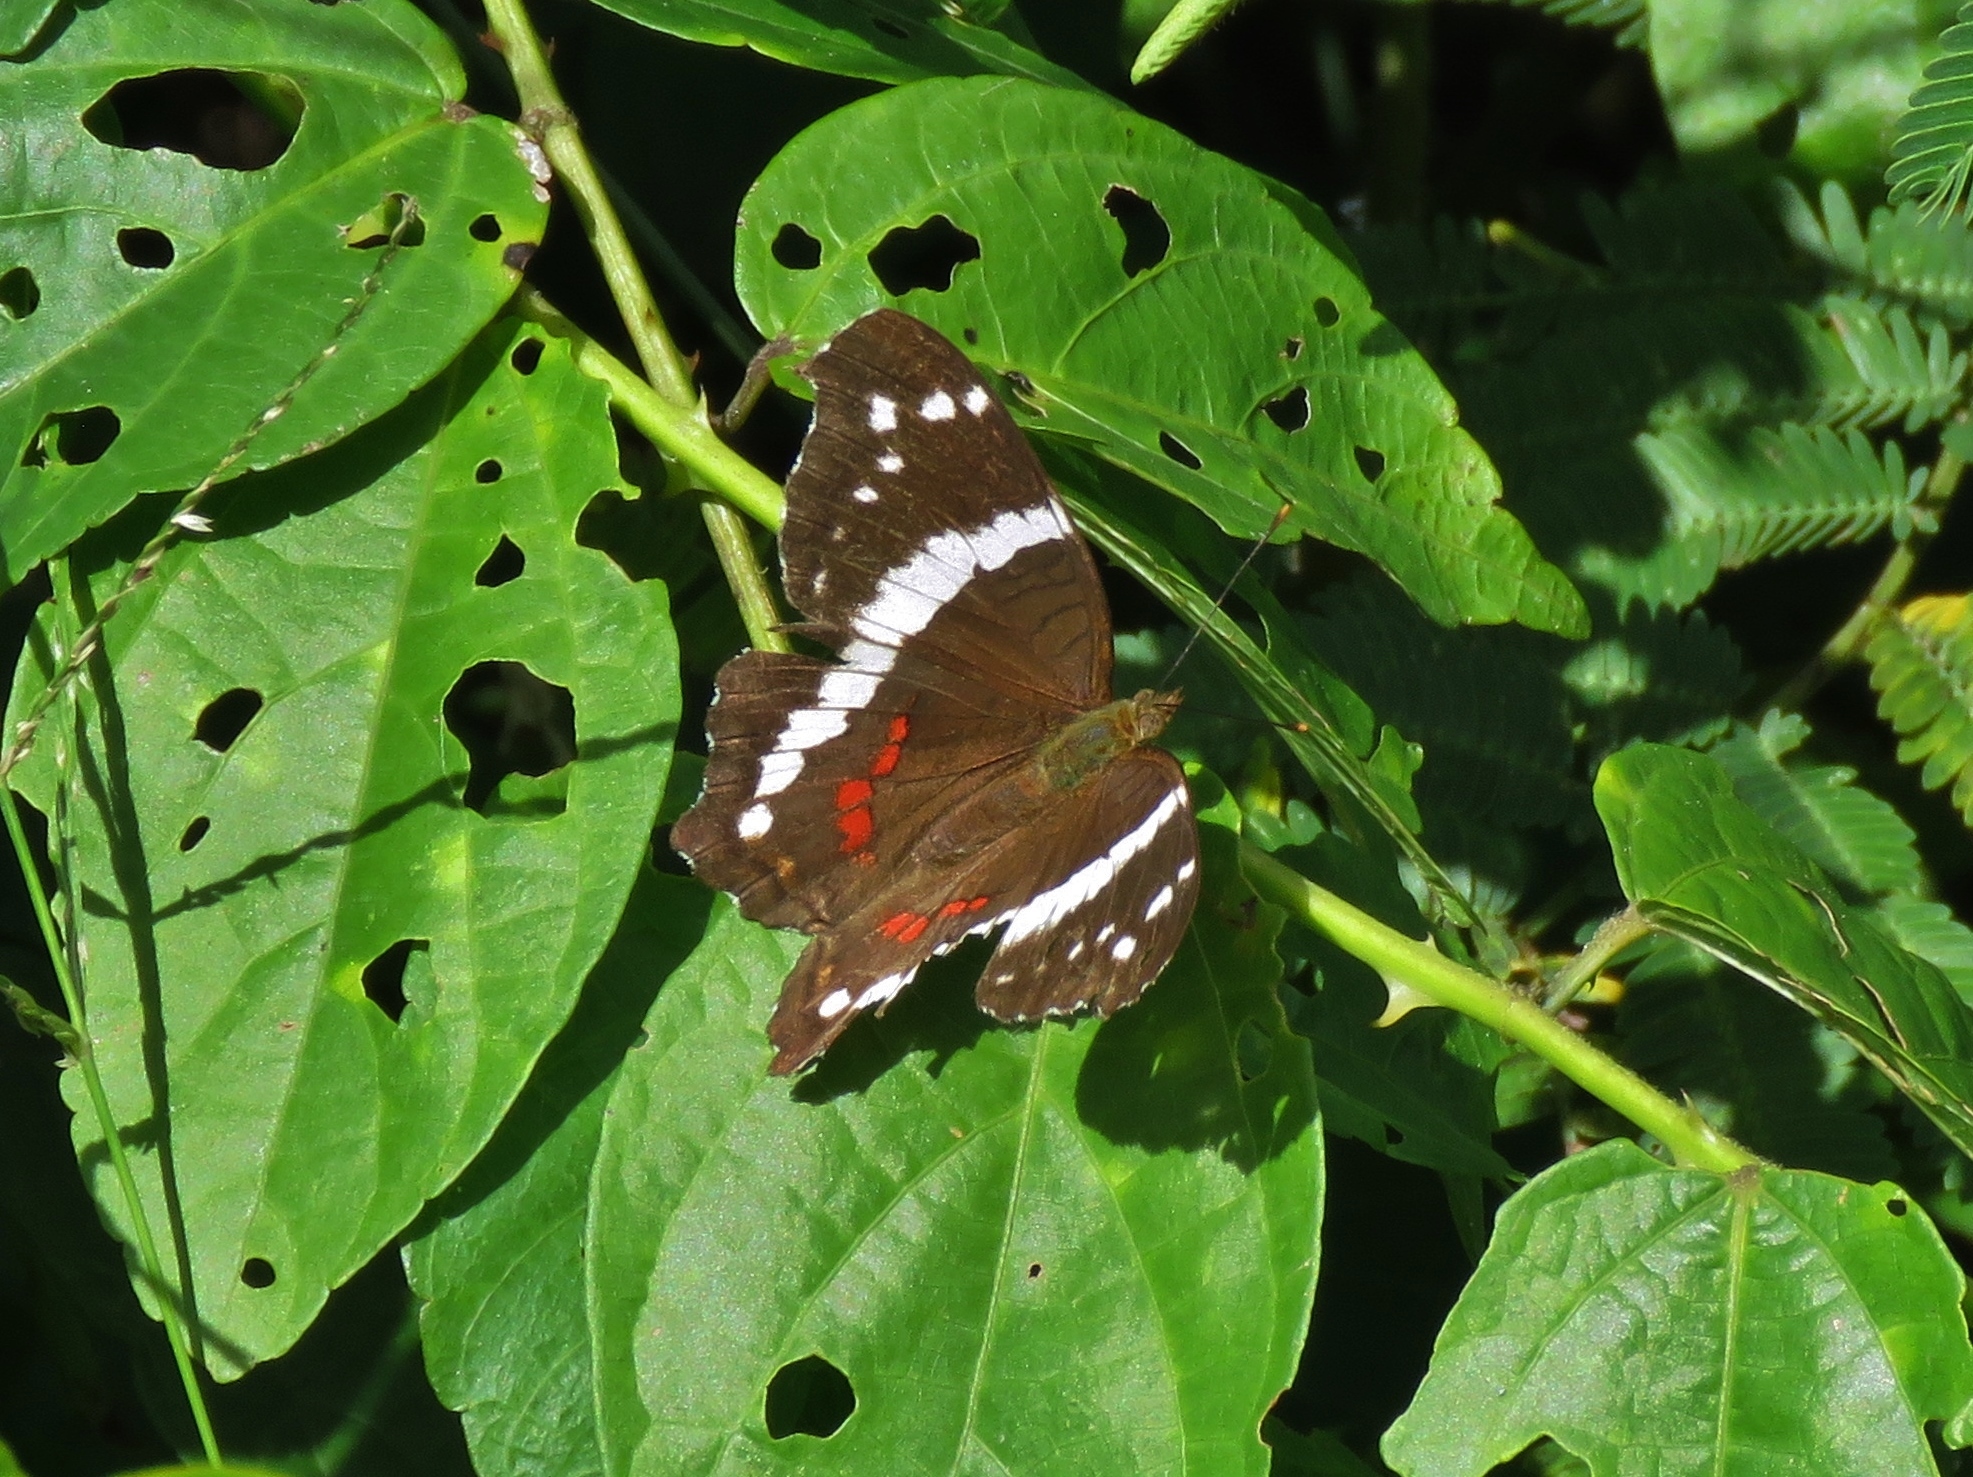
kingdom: Animalia
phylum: Arthropoda
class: Insecta
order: Lepidoptera
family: Nymphalidae
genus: Anartia
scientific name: Anartia fatima
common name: Banded peacock
